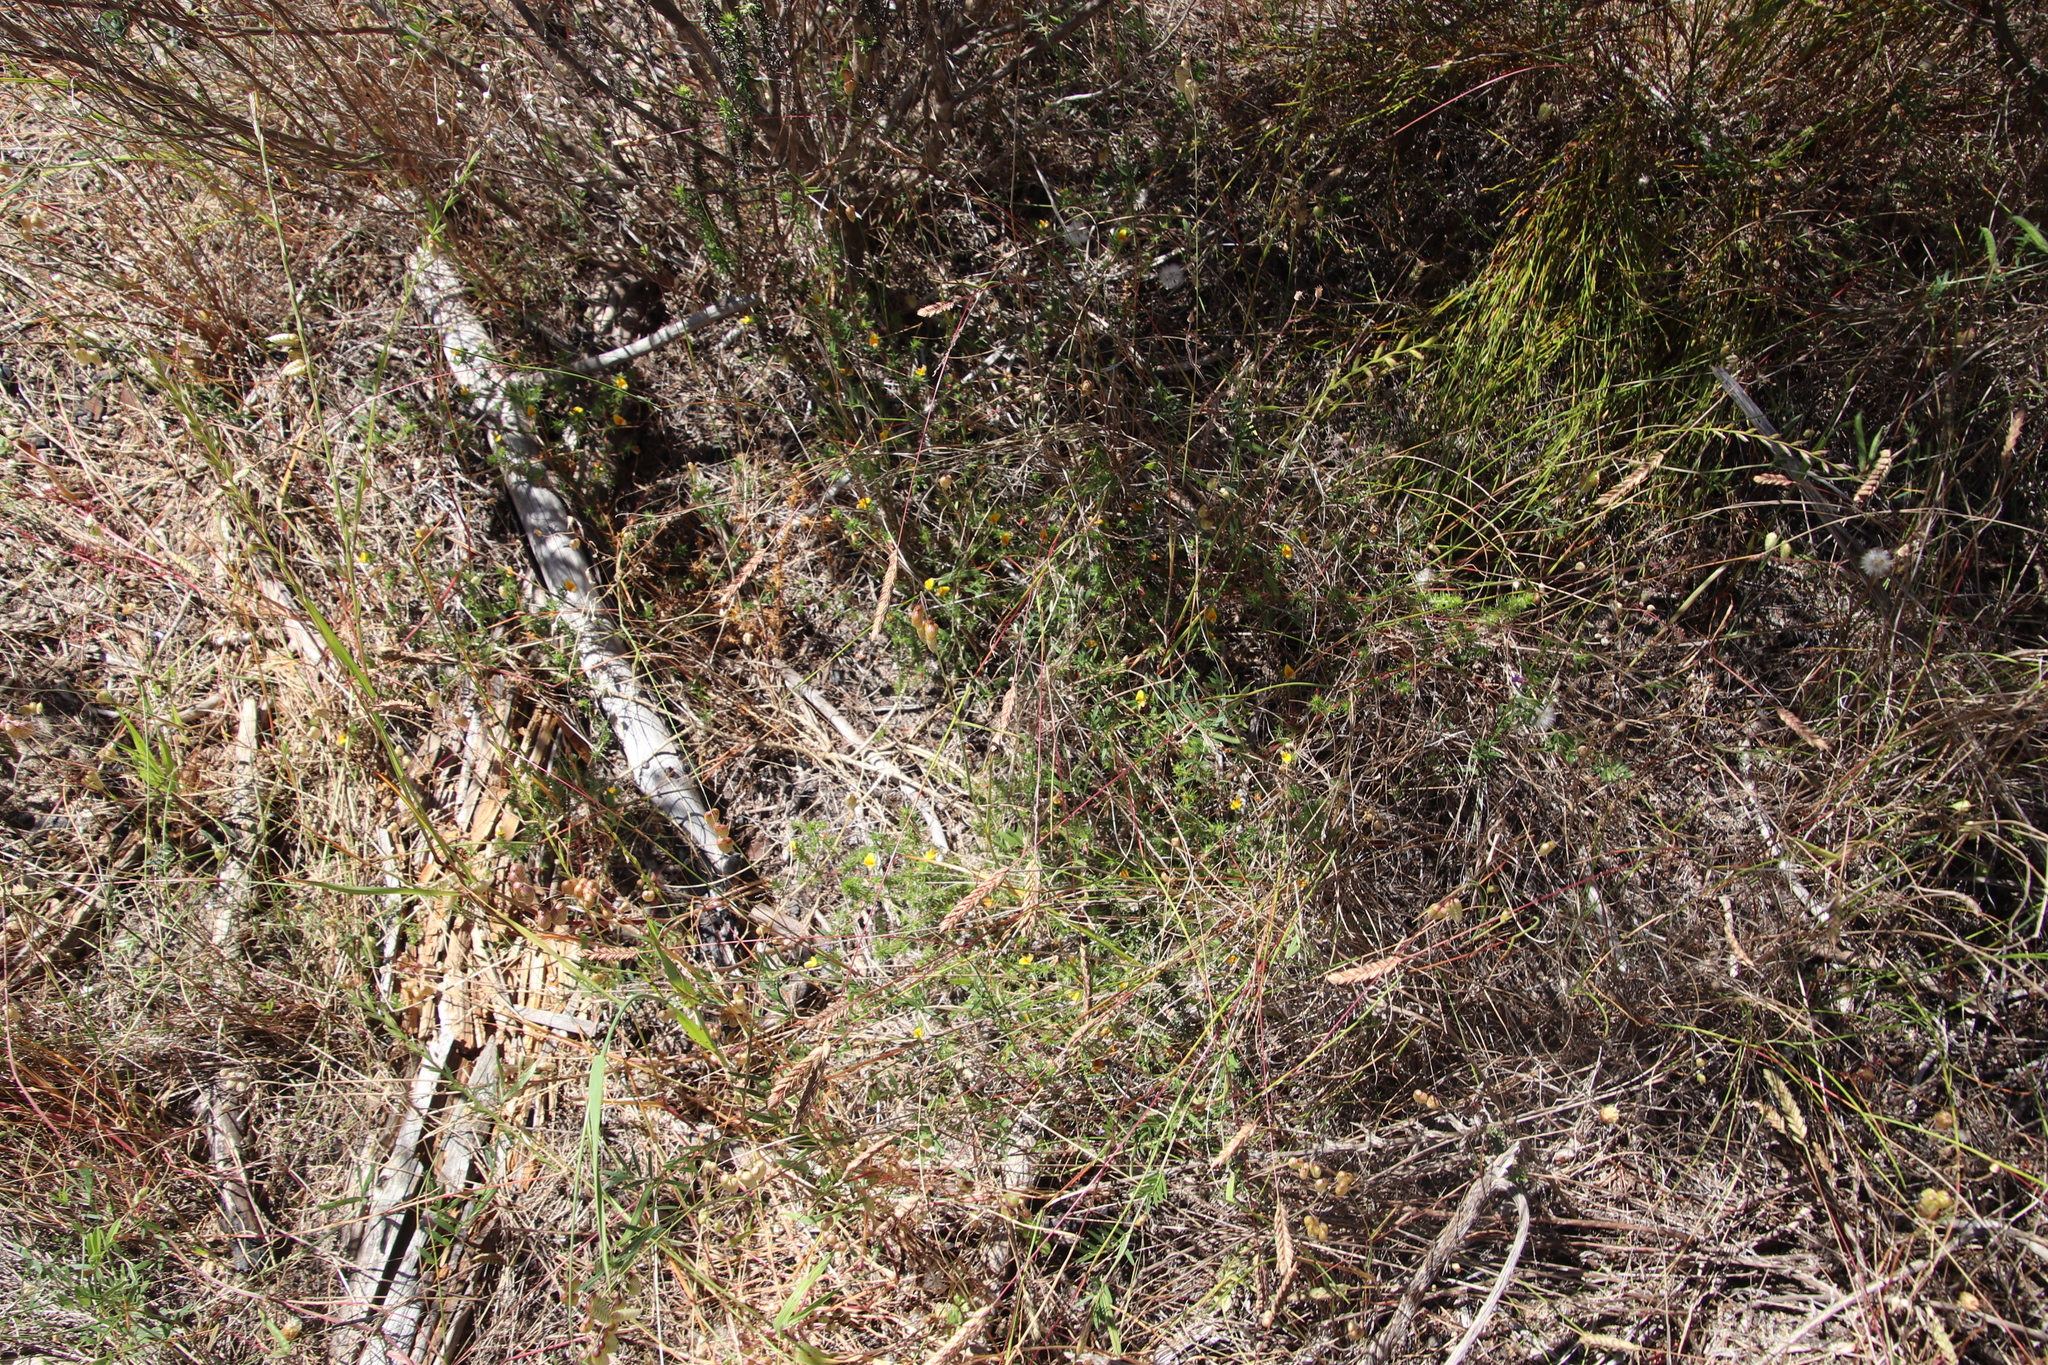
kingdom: Plantae
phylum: Tracheophyta
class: Magnoliopsida
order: Fabales
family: Fabaceae
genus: Aspalathus
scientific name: Aspalathus retroflexa
